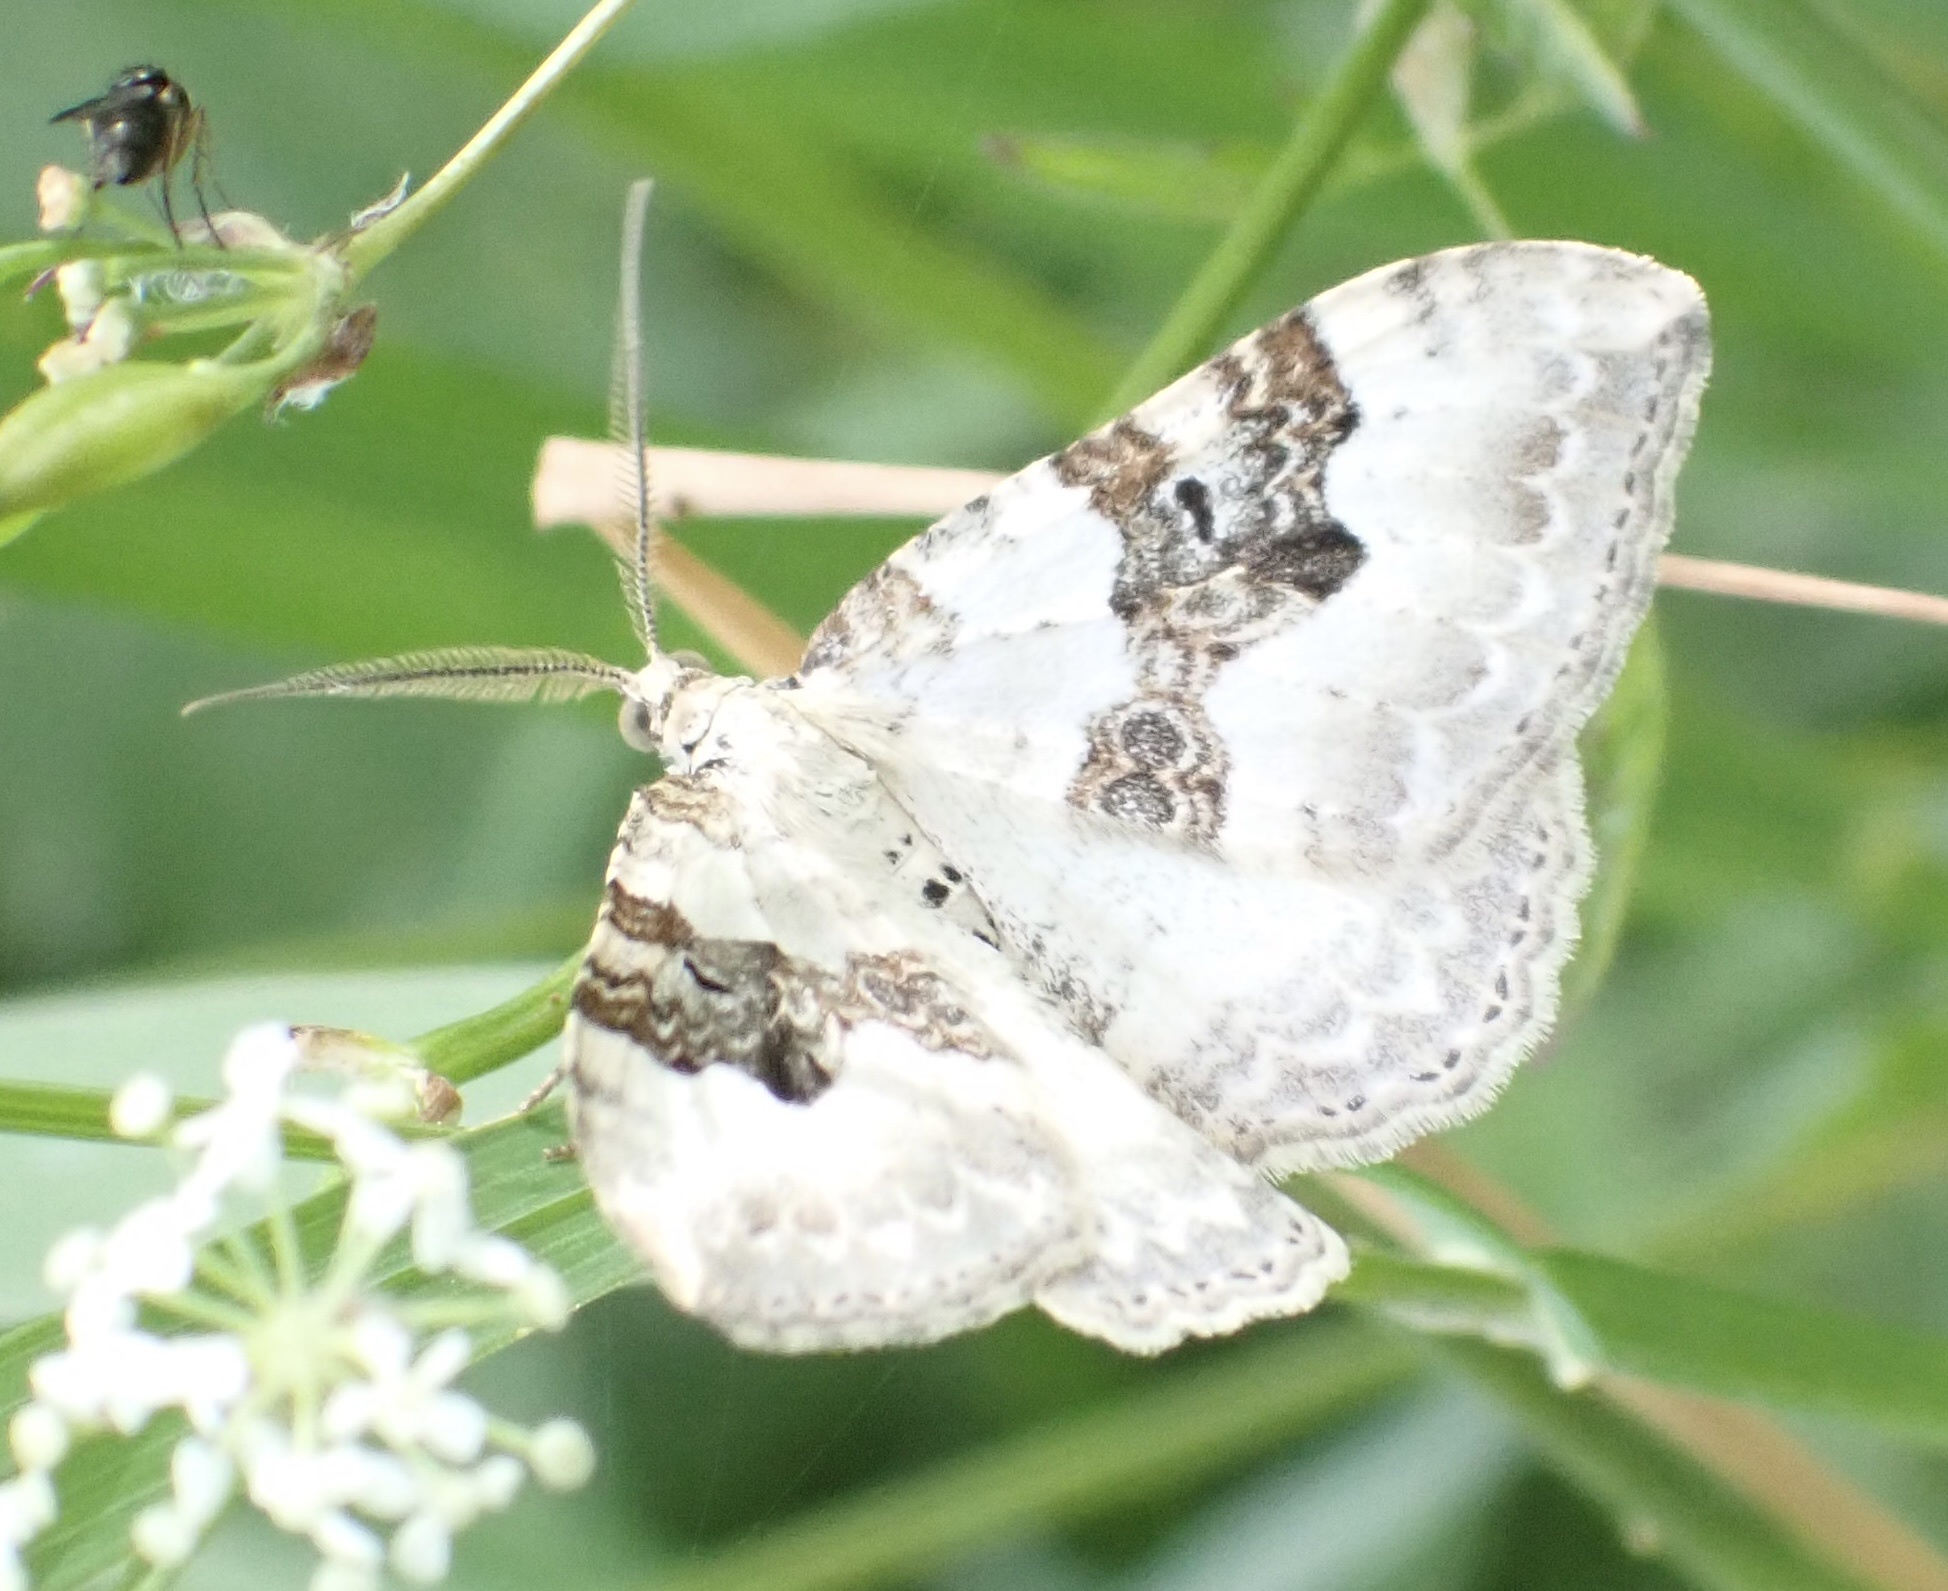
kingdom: Animalia
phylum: Arthropoda
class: Insecta
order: Lepidoptera
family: Geometridae
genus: Xanthorhoe
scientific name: Xanthorhoe montanata
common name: Silver-ground carpet
